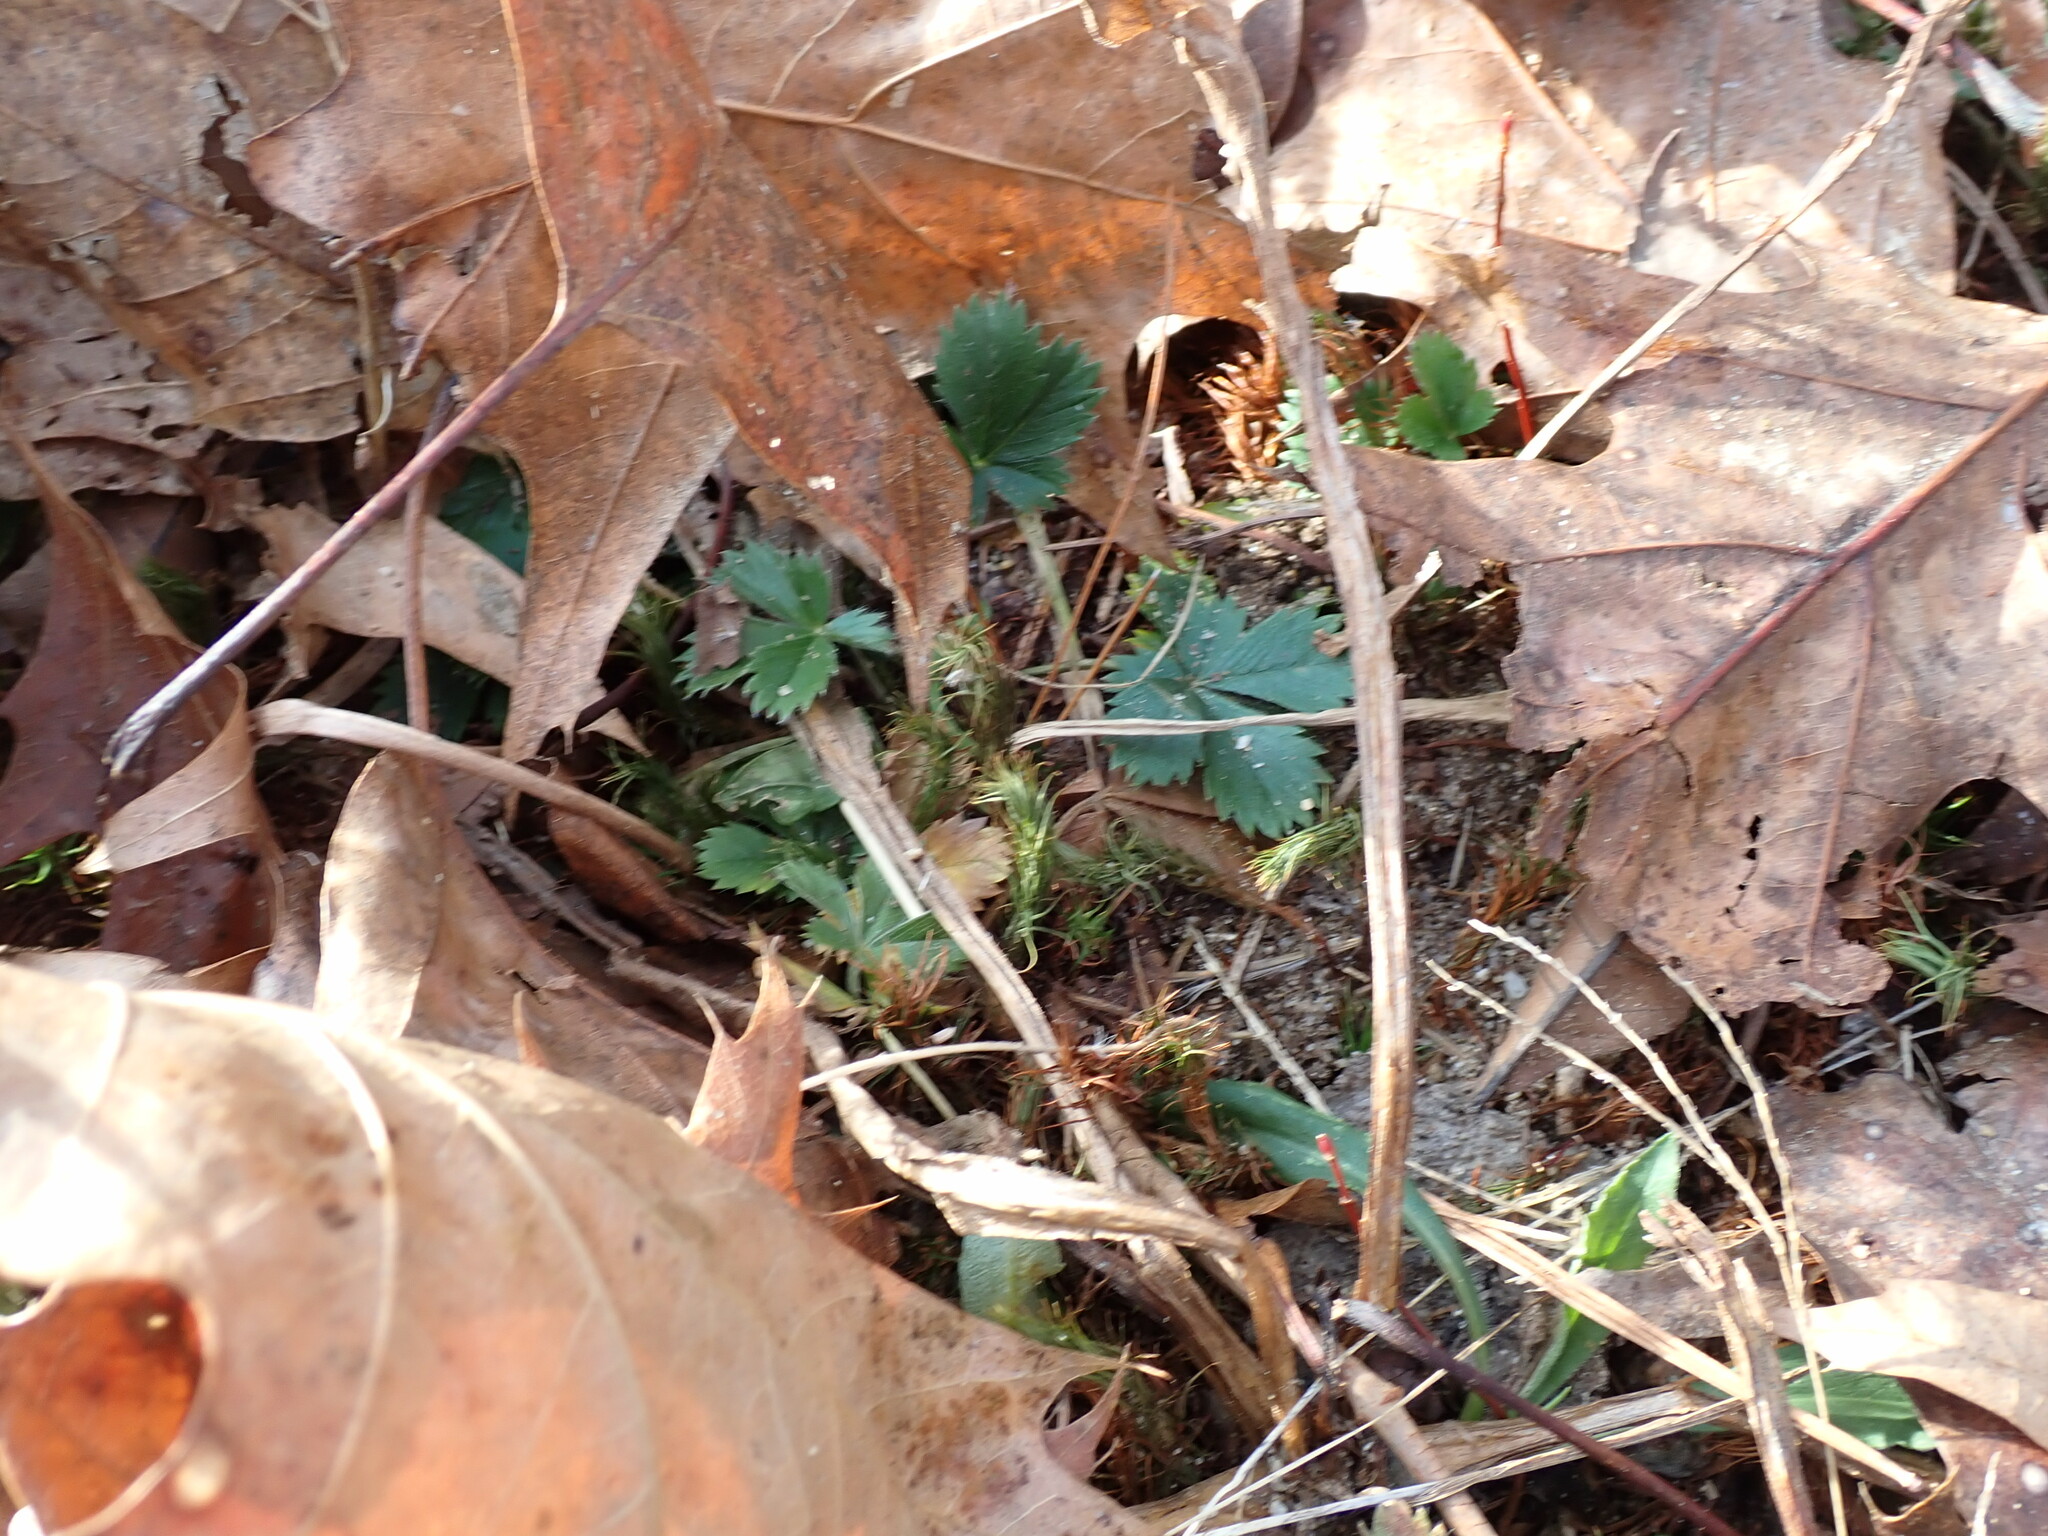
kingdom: Plantae
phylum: Tracheophyta
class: Magnoliopsida
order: Rosales
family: Rosaceae
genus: Potentilla
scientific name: Potentilla canadensis
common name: Canada cinquefoil
